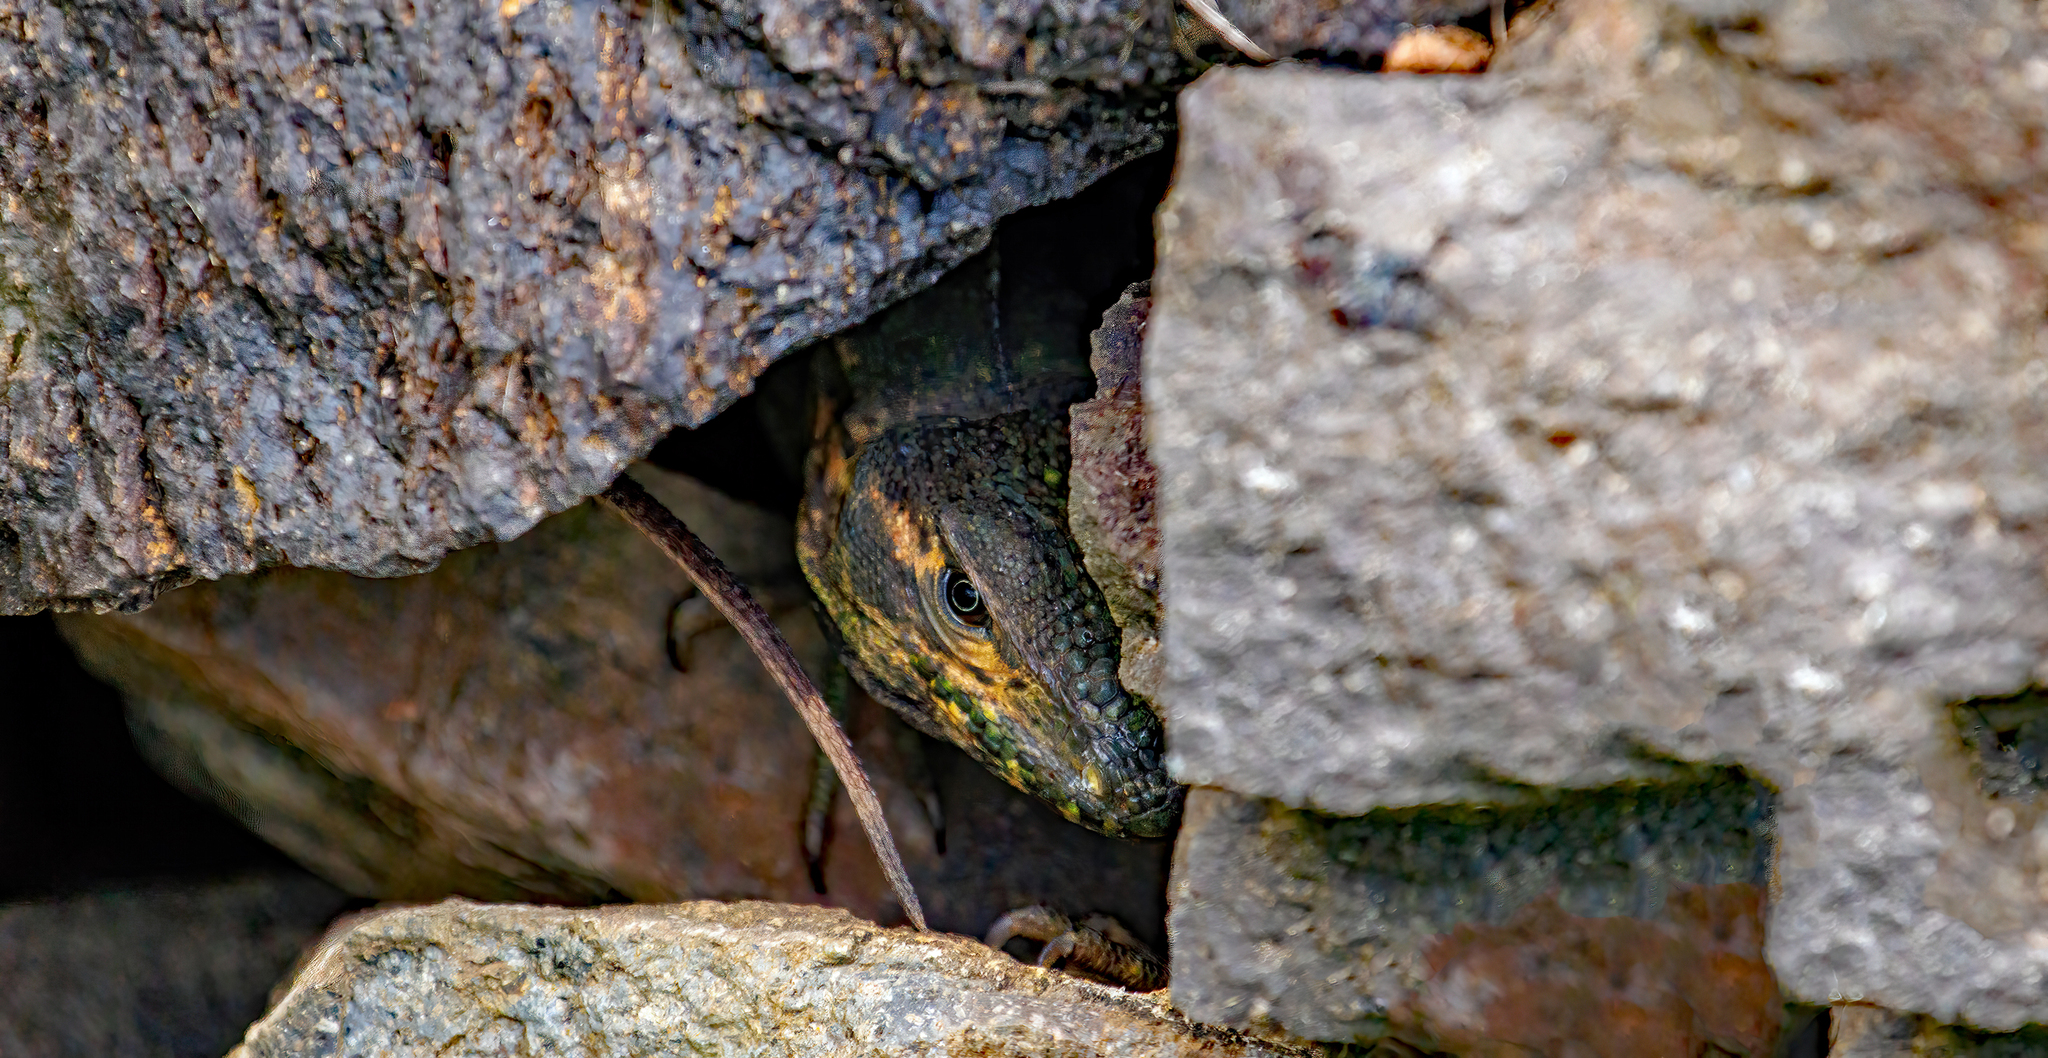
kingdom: Animalia
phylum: Chordata
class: Squamata
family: Iguanidae
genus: Ctenosaura
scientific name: Ctenosaura similis
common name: Black spiny-tailed iguana
